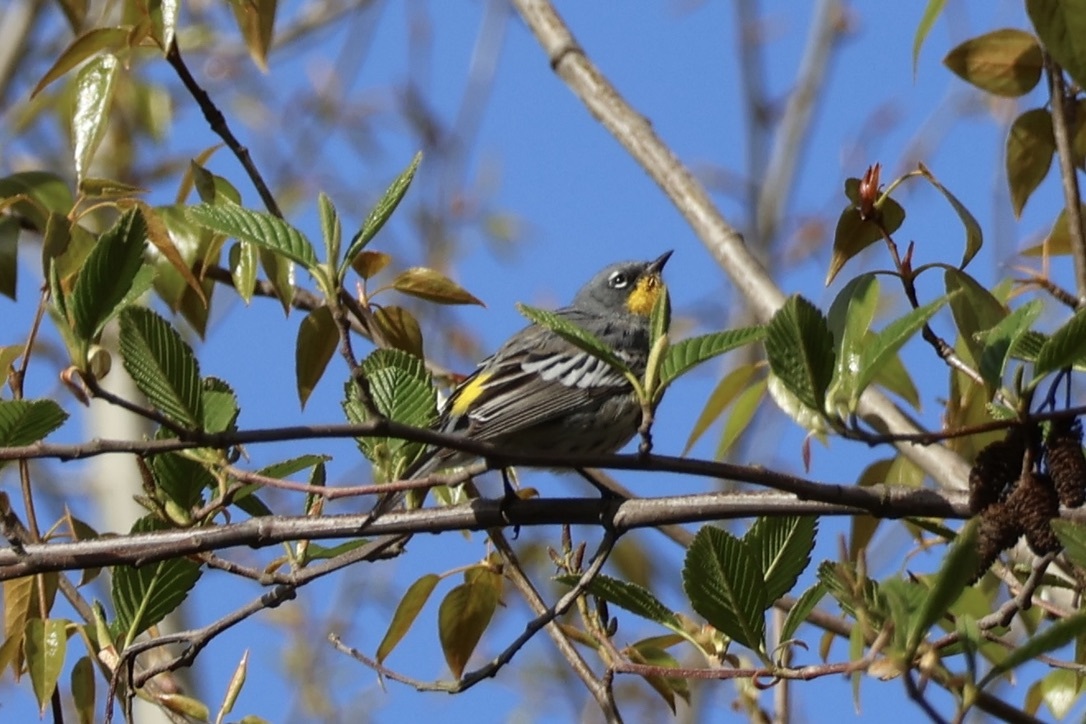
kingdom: Animalia
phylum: Chordata
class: Aves
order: Passeriformes
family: Parulidae
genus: Setophaga
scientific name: Setophaga coronata
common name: Myrtle warbler
